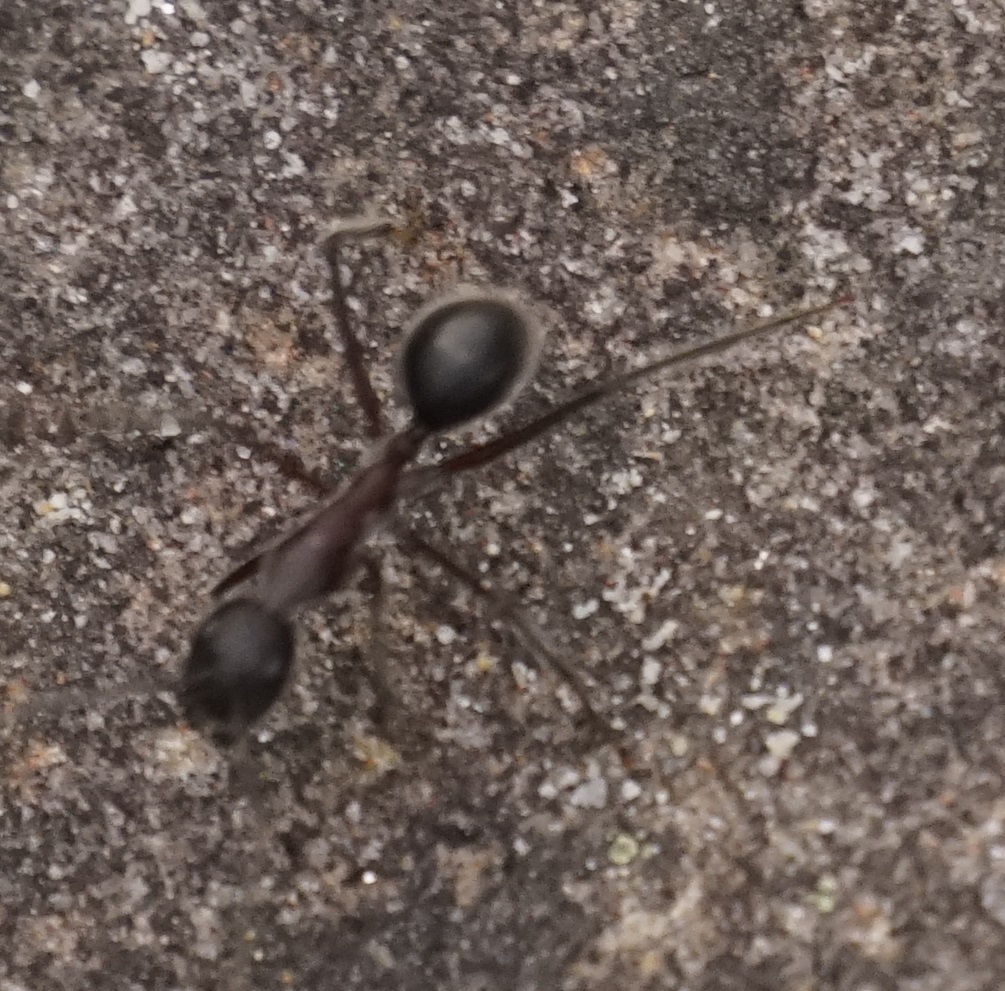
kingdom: Animalia
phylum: Arthropoda
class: Insecta
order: Hymenoptera
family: Formicidae
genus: Camponotus
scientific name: Camponotus intrepidus
